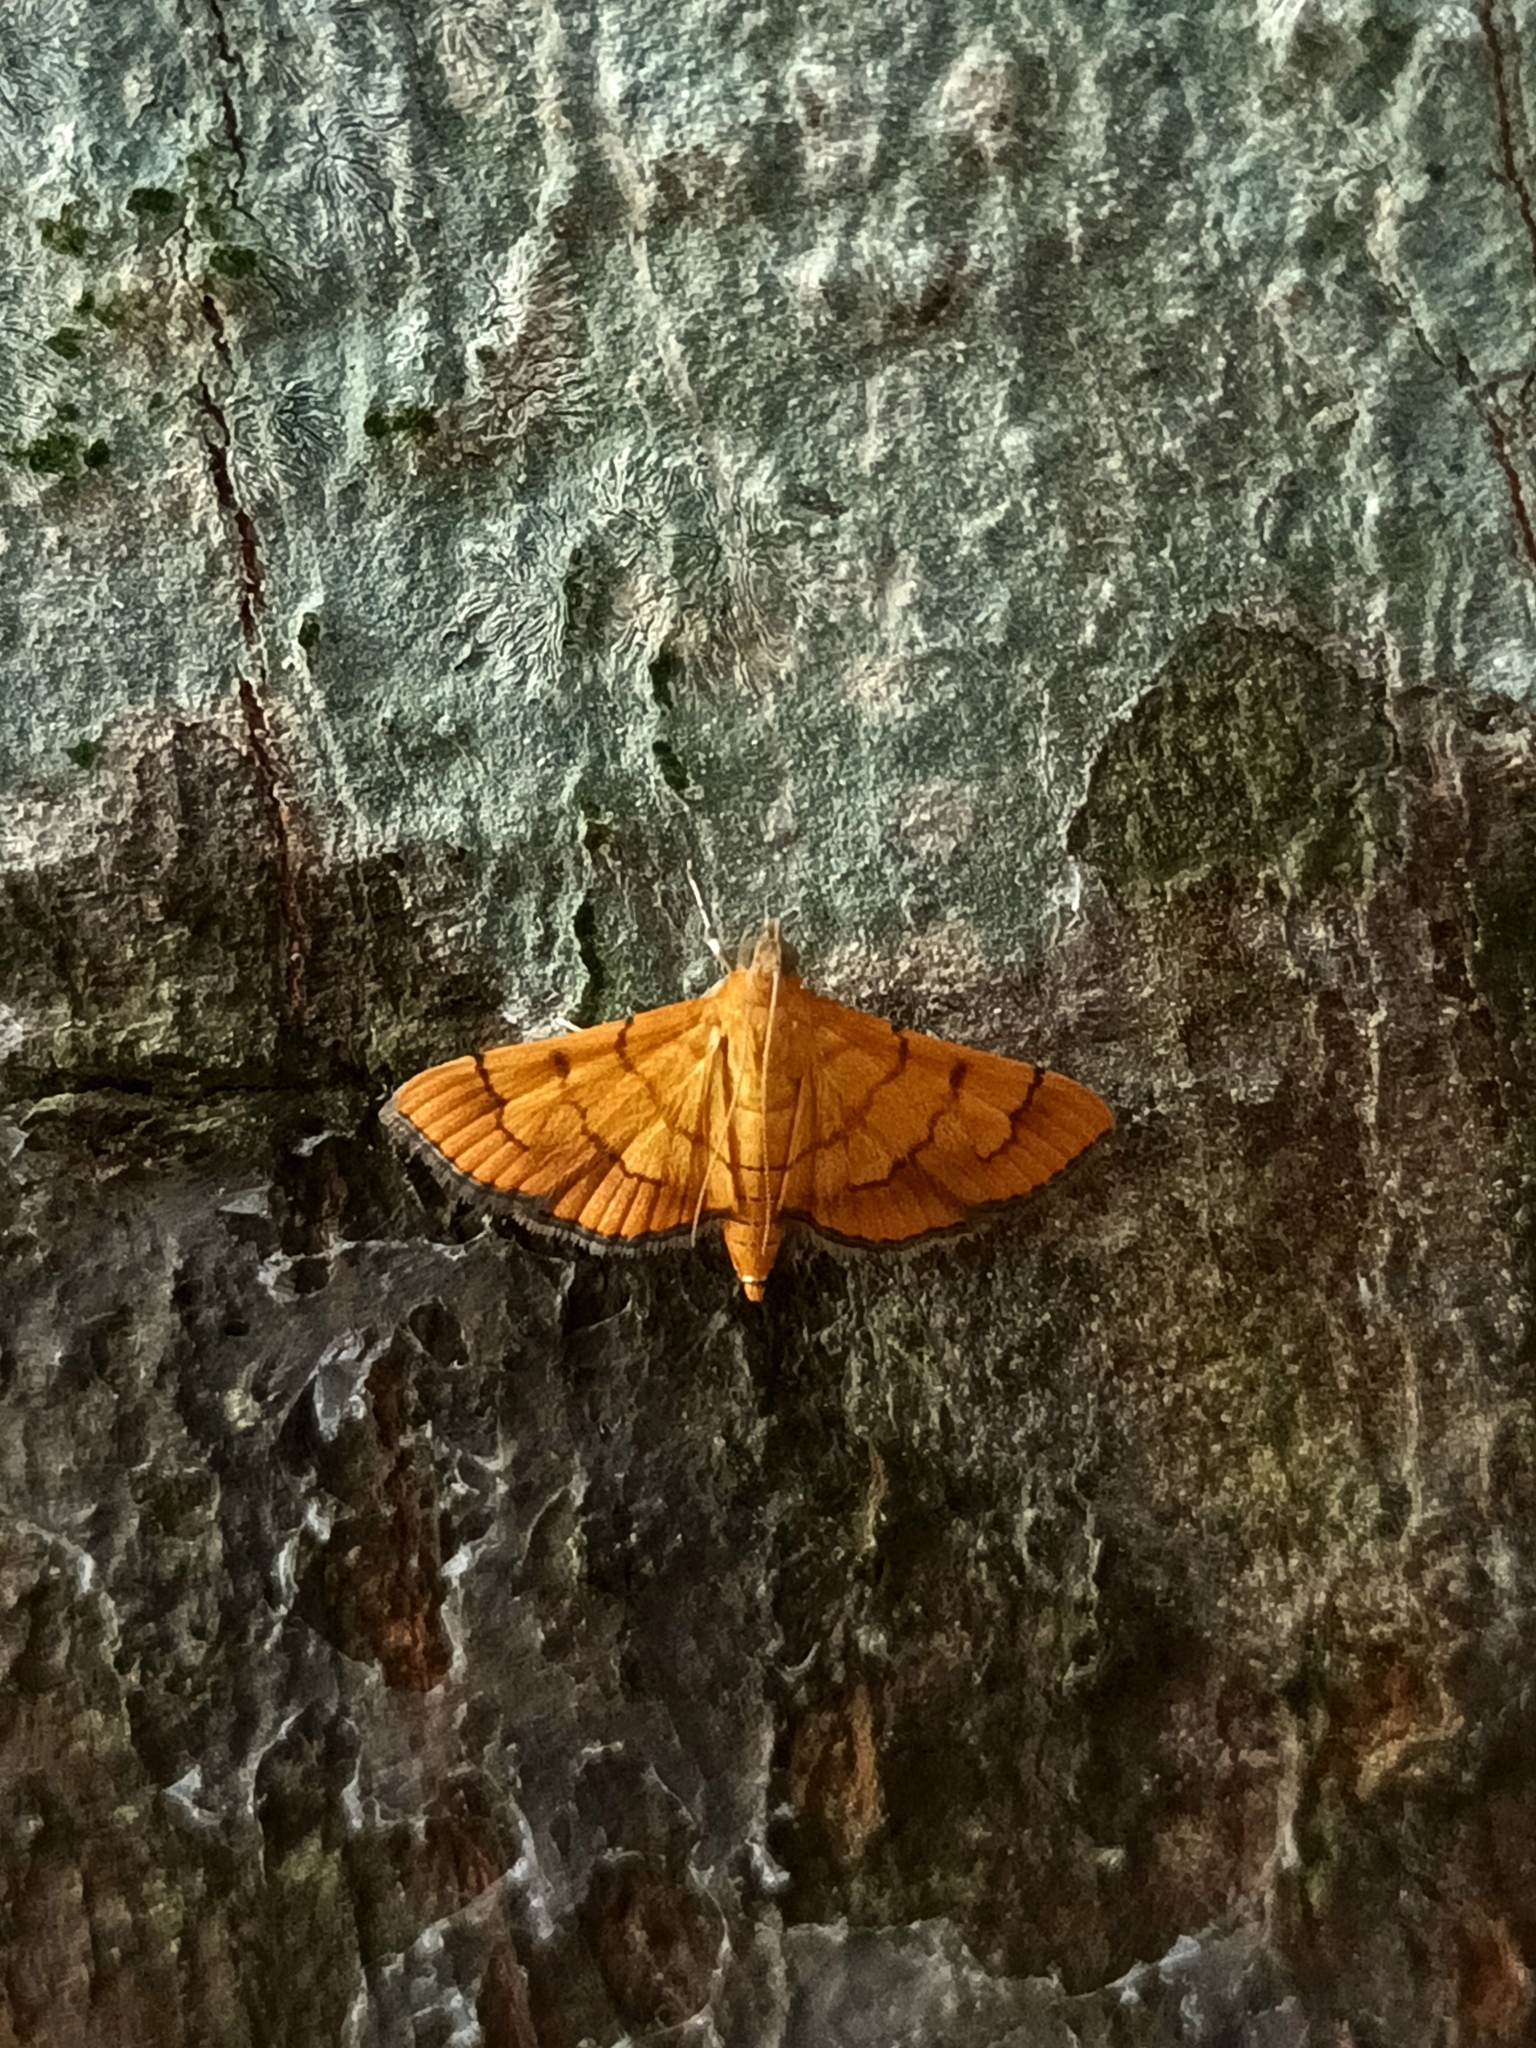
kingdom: Animalia
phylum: Arthropoda
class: Insecta
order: Lepidoptera
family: Crambidae
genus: Orphanostigma
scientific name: Orphanostigma abruptalis
